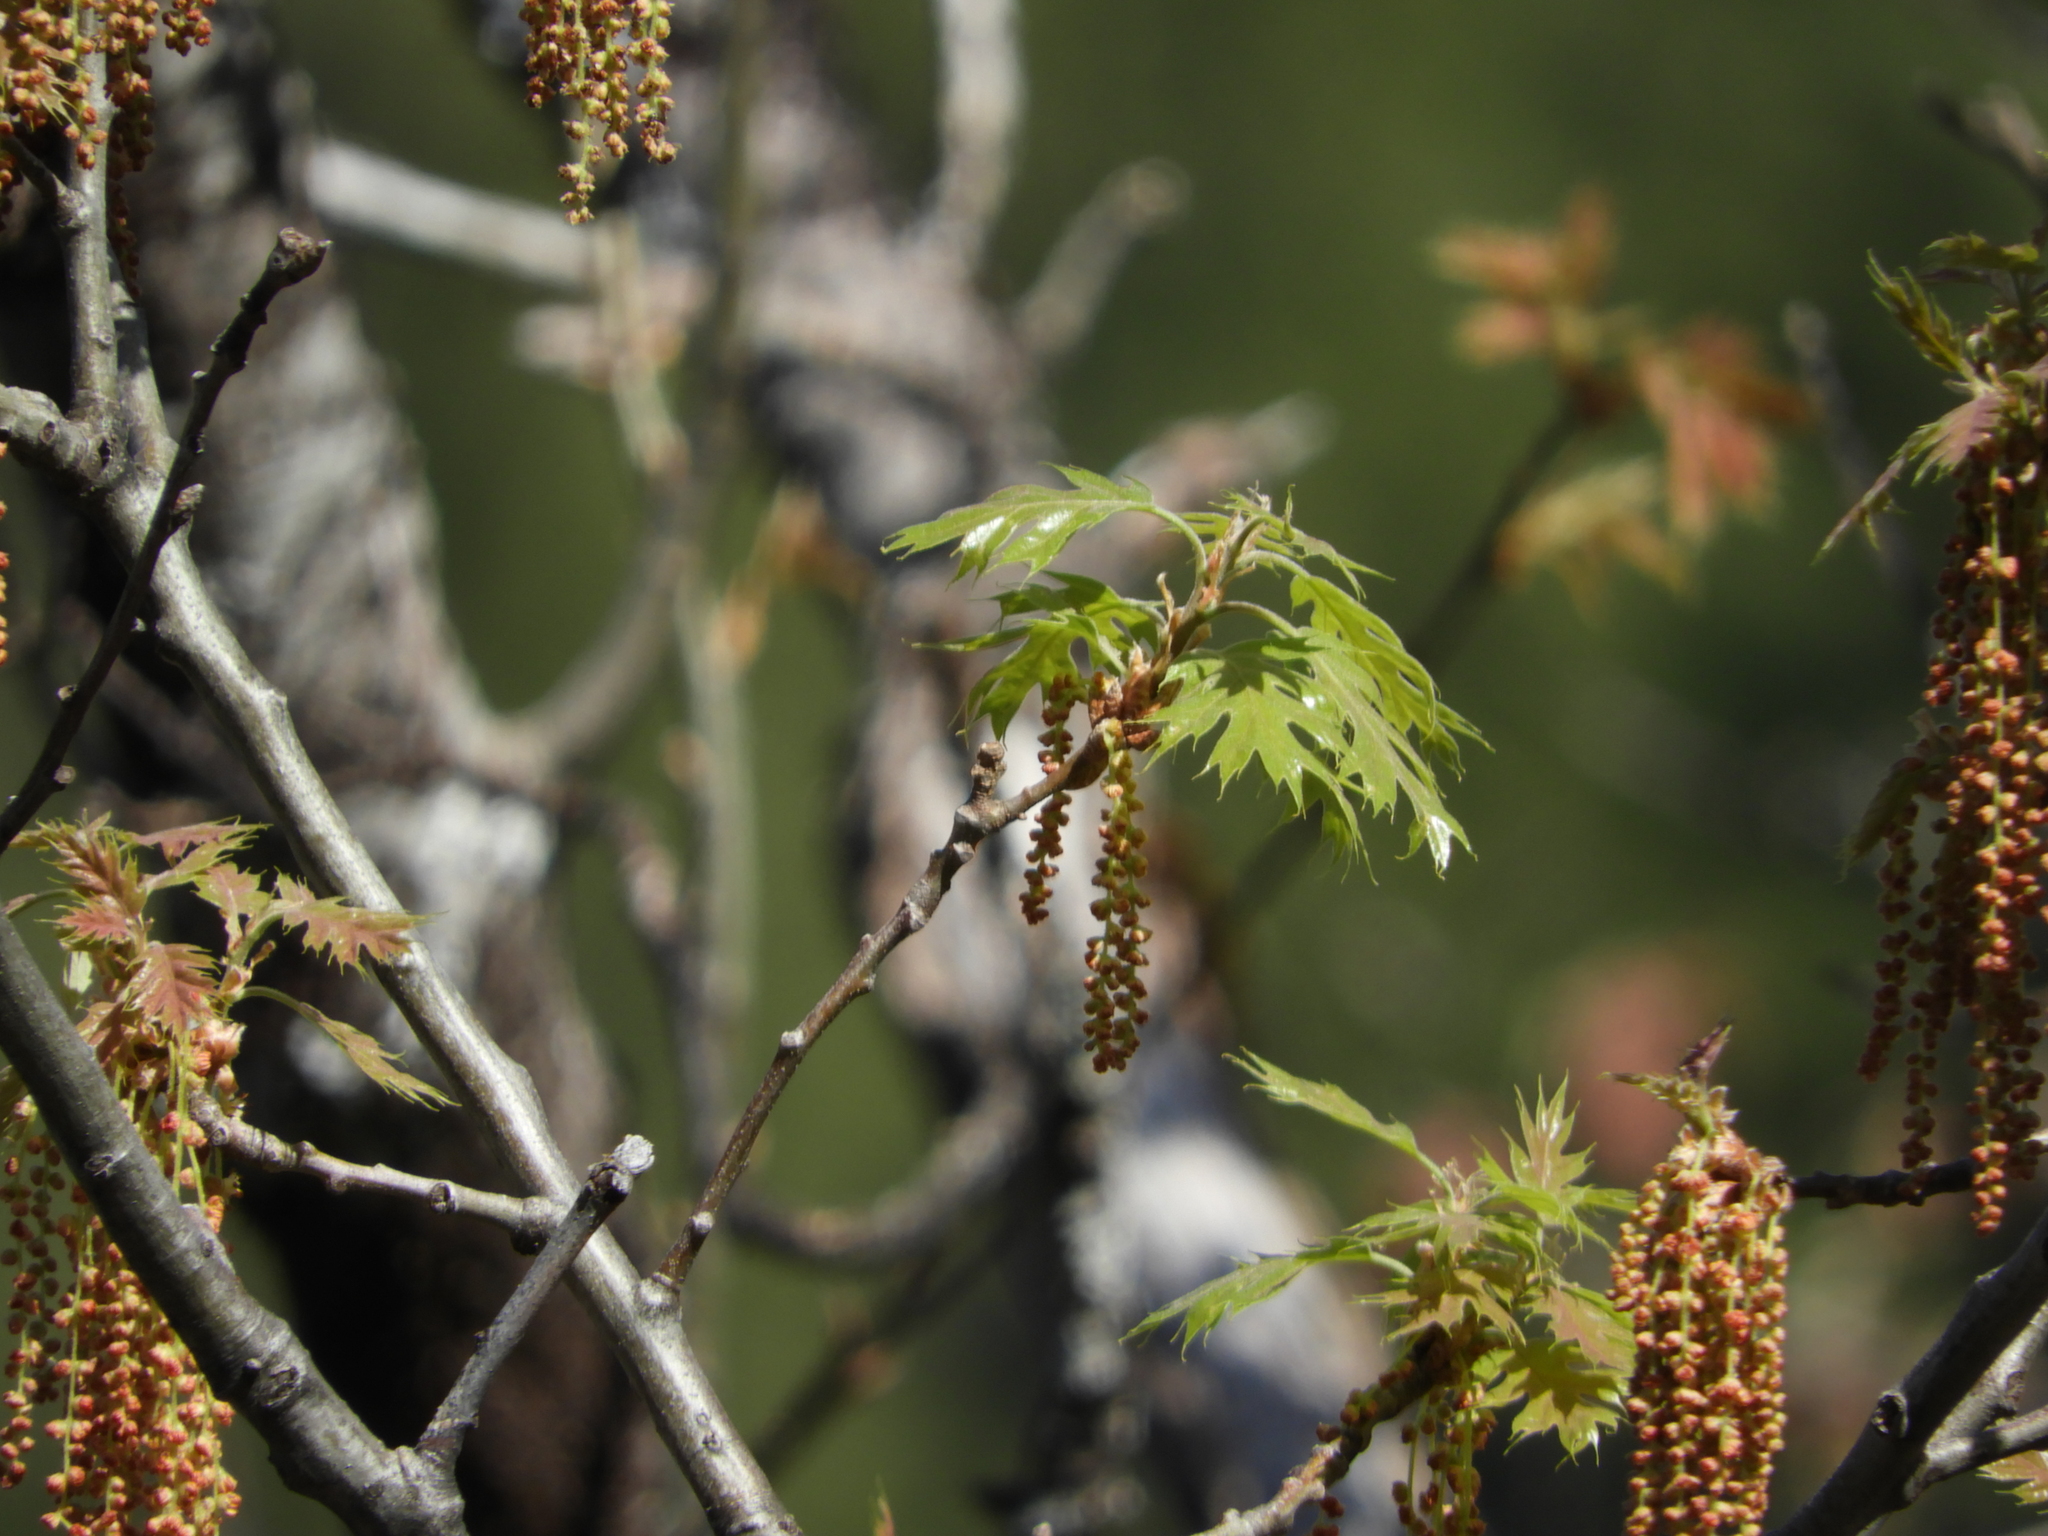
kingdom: Plantae
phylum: Tracheophyta
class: Magnoliopsida
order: Fagales
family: Fagaceae
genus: Quercus
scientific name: Quercus kelloggii
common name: California black oak
